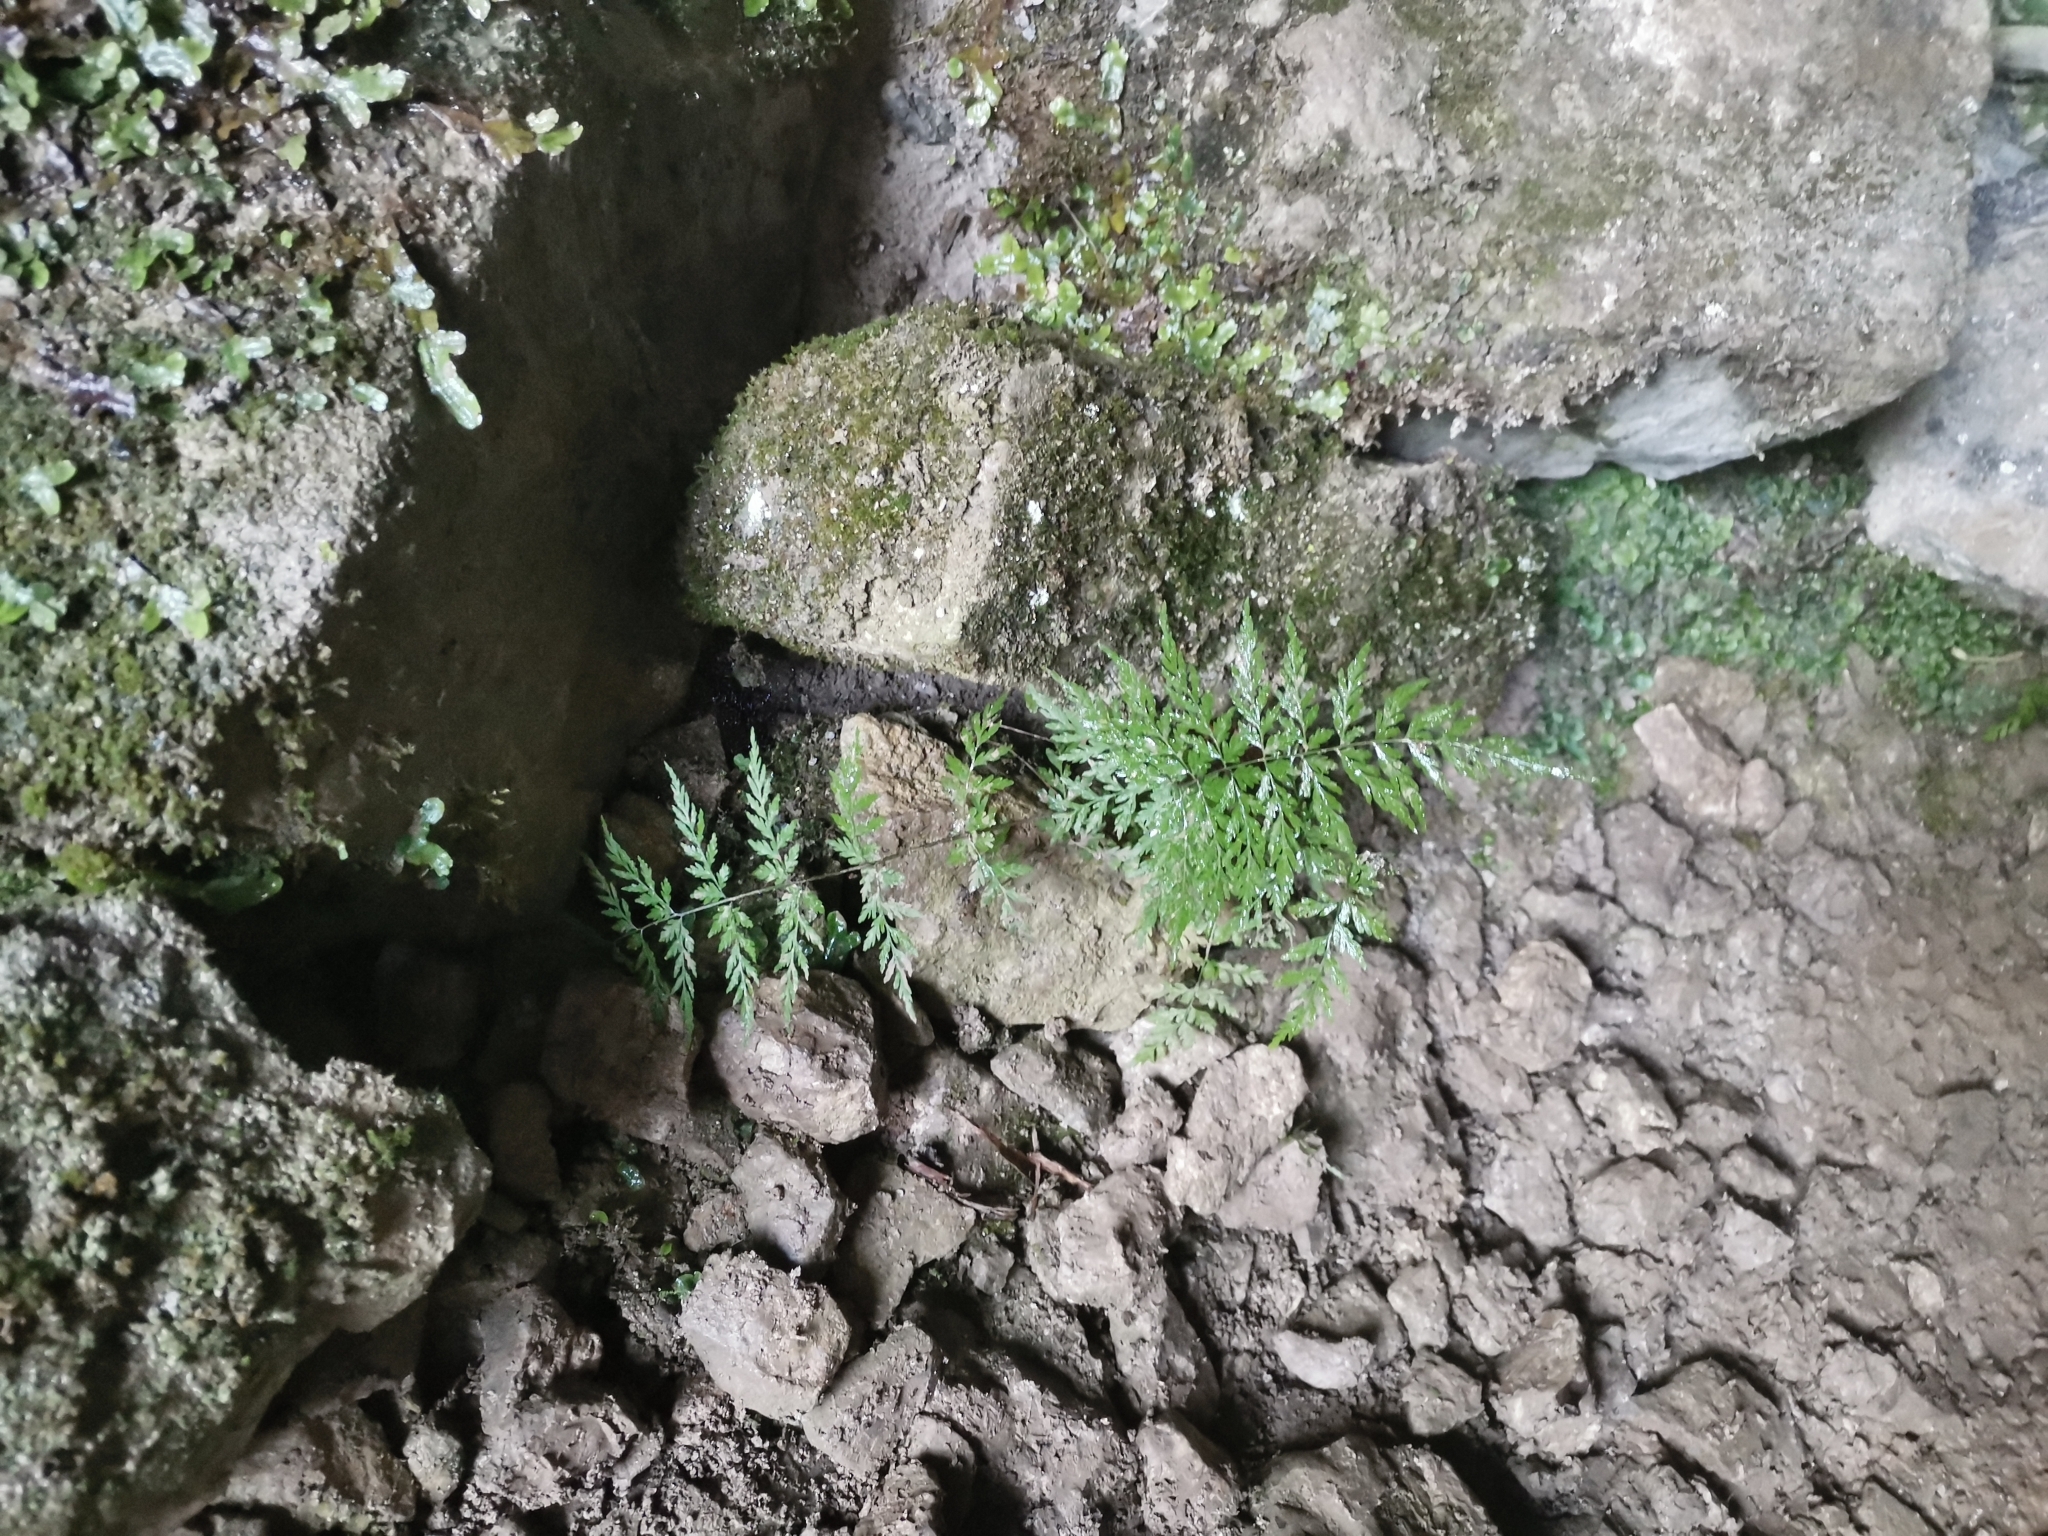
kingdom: Plantae
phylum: Tracheophyta
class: Polypodiopsida
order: Polypodiales
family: Cystopteridaceae
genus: Cystopteris
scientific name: Cystopteris fragilis
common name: Brittle bladder fern
